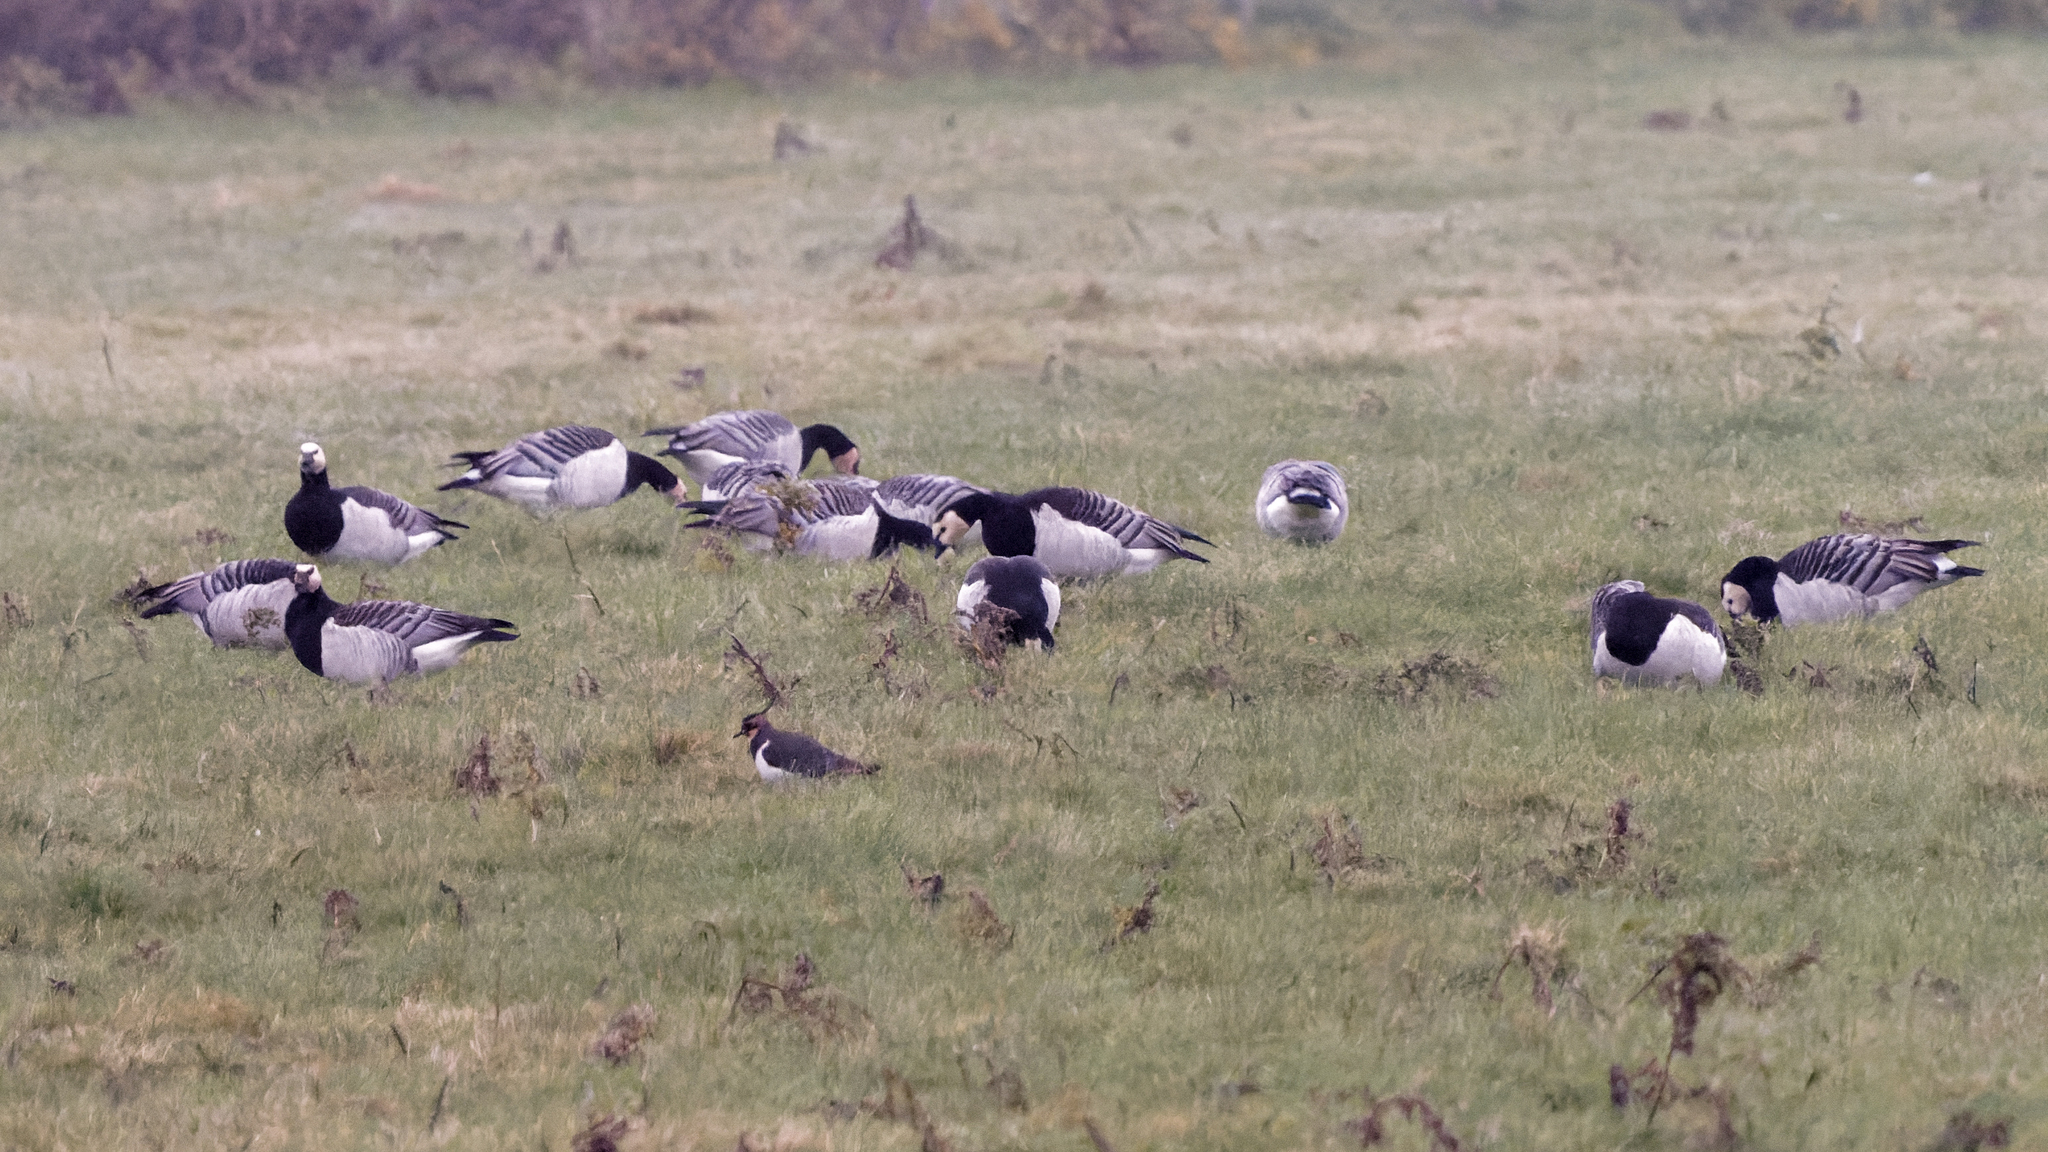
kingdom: Animalia
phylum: Chordata
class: Aves
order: Anseriformes
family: Anatidae
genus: Branta
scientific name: Branta leucopsis
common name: Barnacle goose
